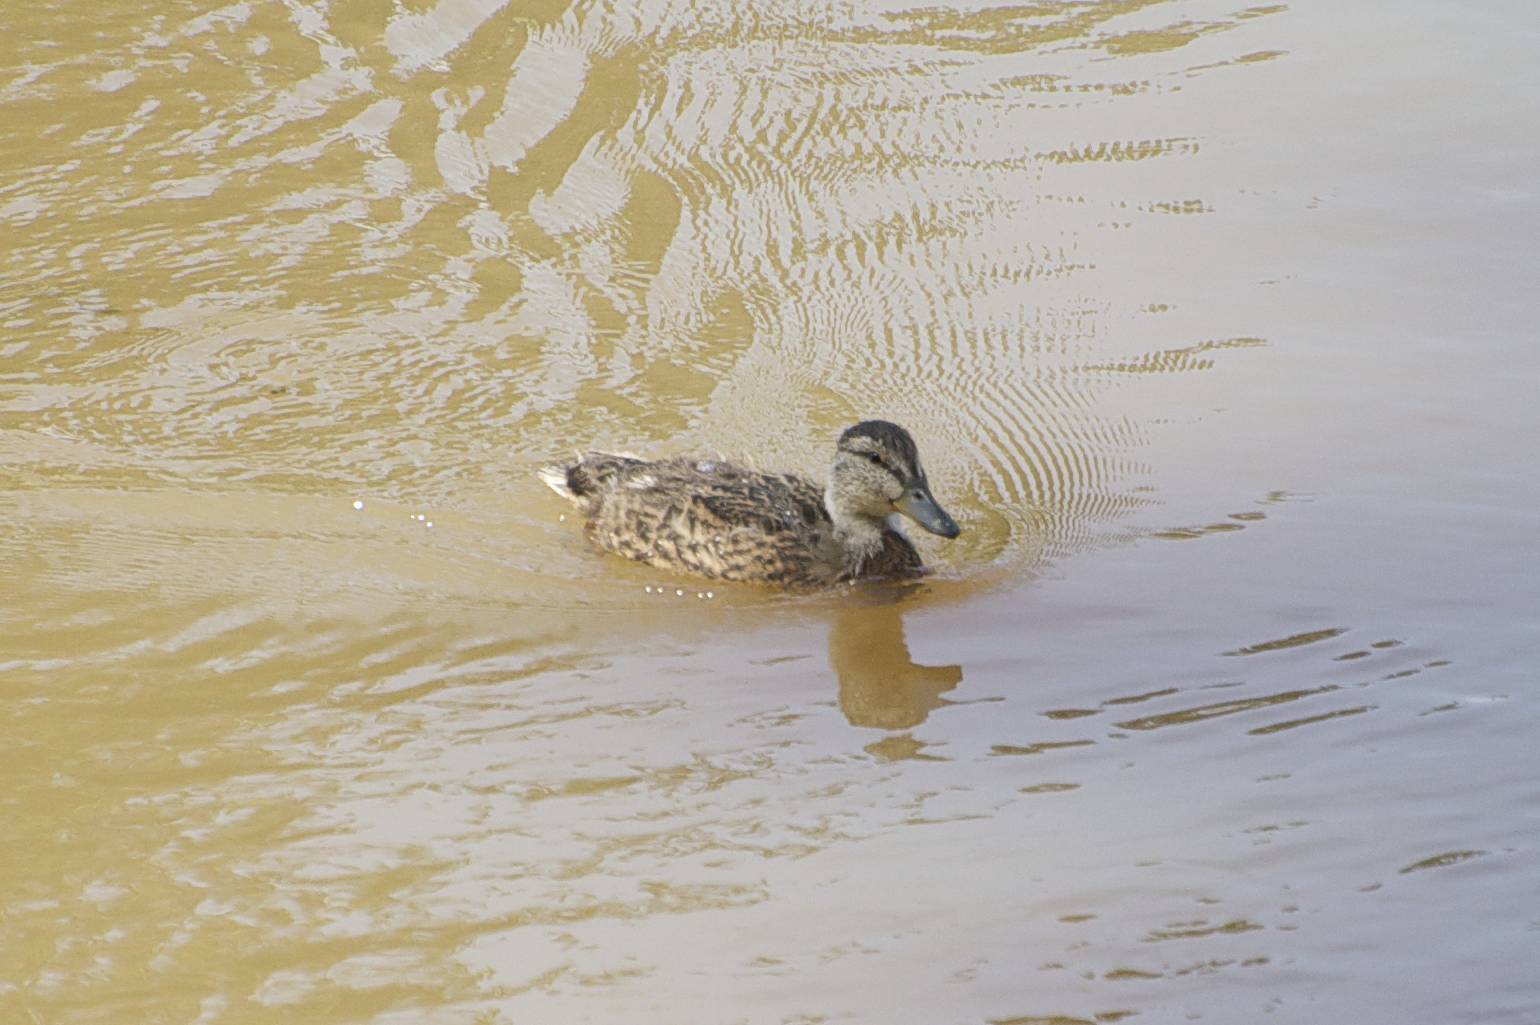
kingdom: Animalia
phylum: Chordata
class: Aves
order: Anseriformes
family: Anatidae
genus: Anas
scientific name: Anas platyrhynchos
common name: Mallard
